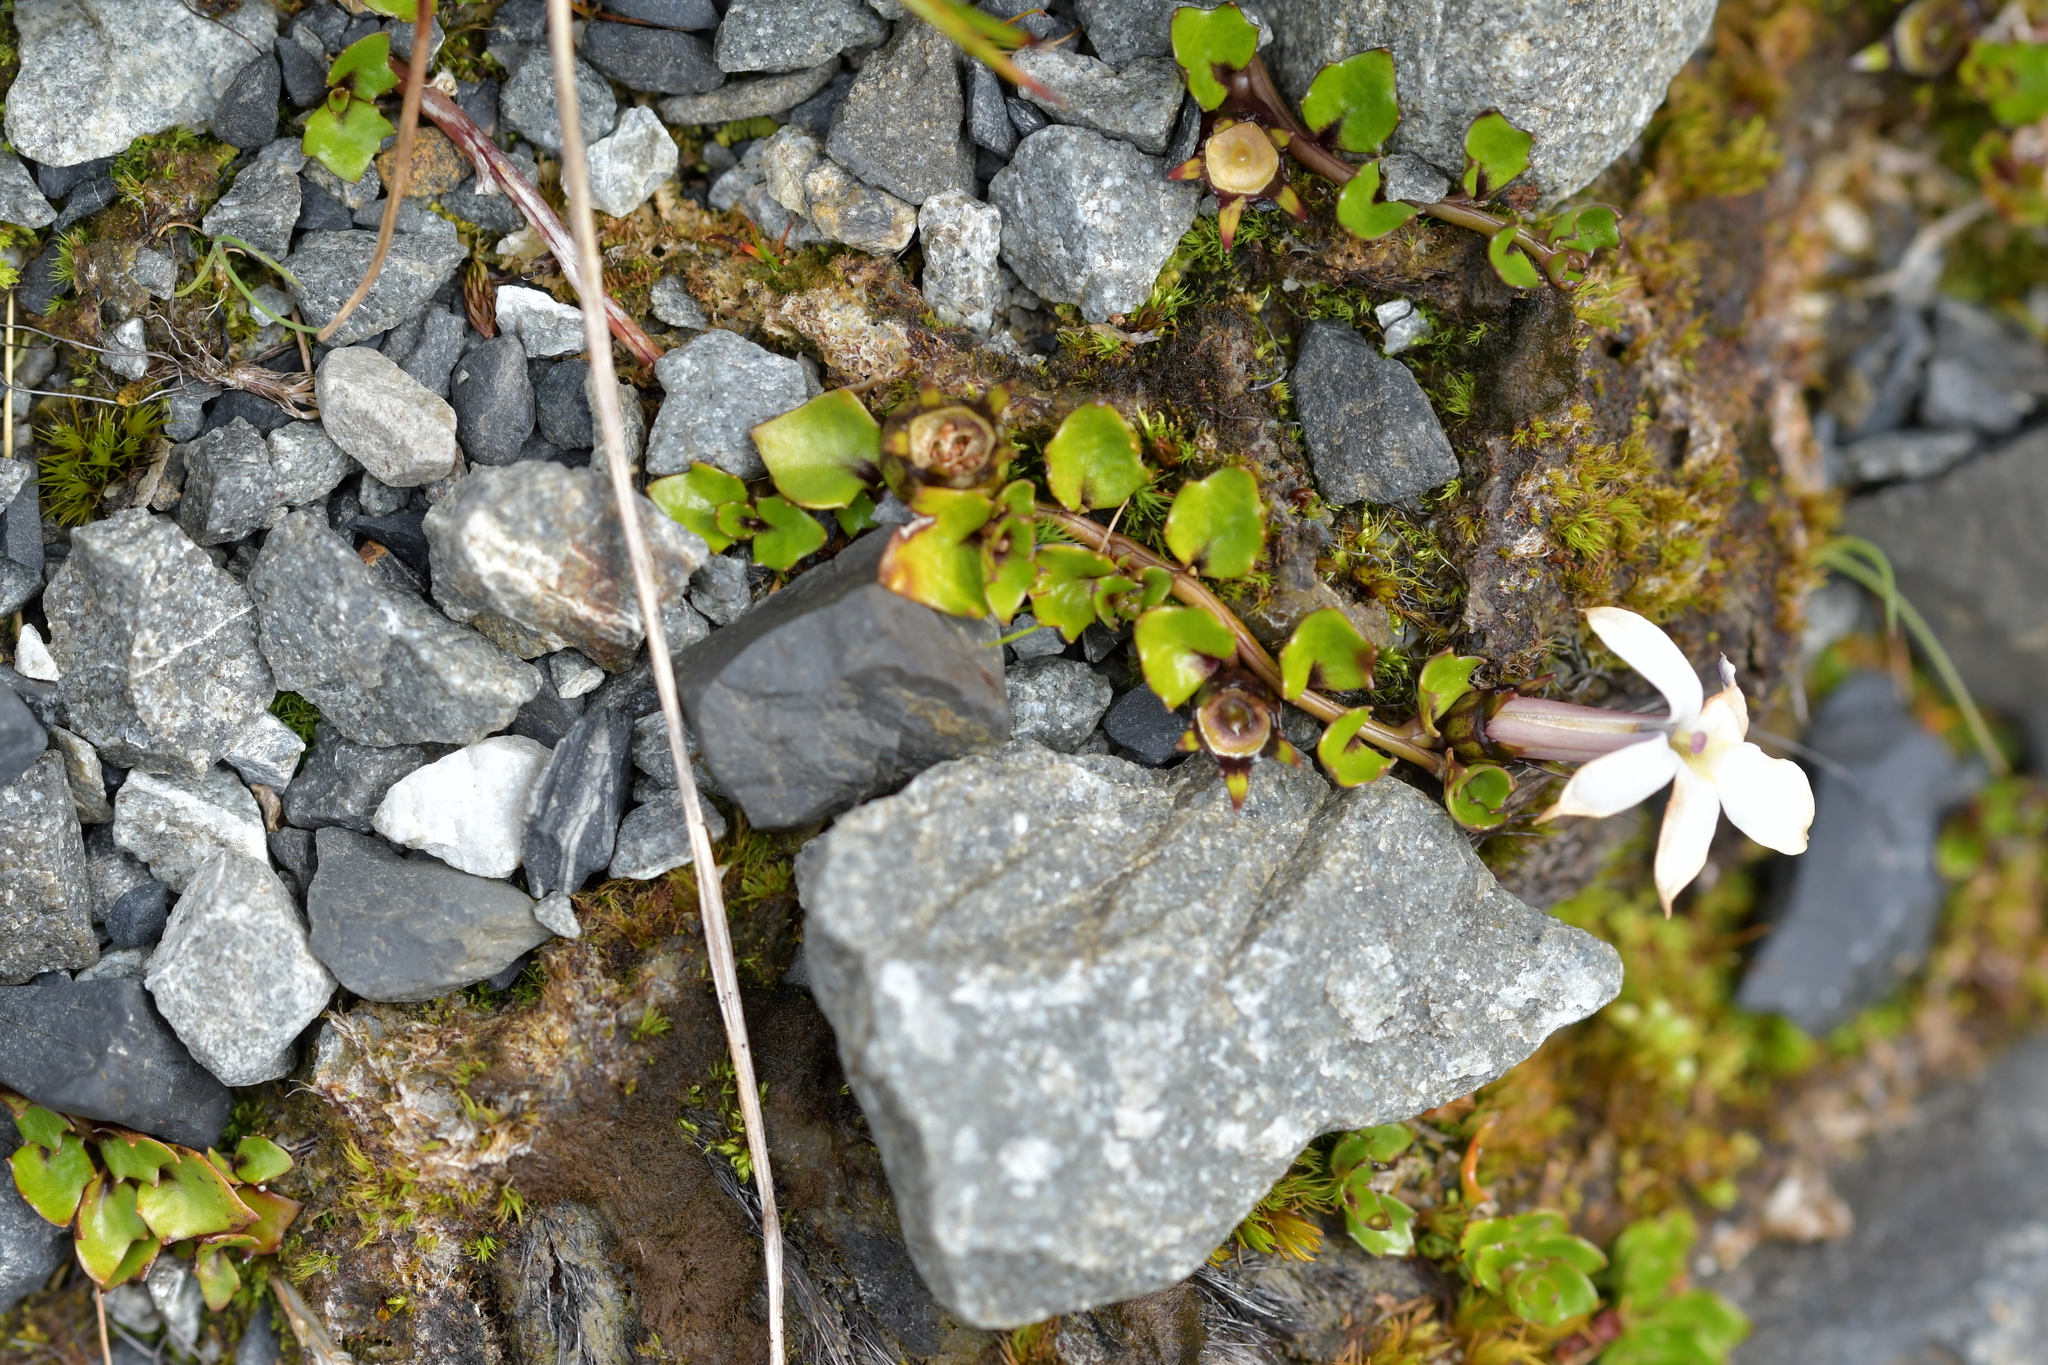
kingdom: Plantae
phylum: Tracheophyta
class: Magnoliopsida
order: Asterales
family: Campanulaceae
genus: Lobelia
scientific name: Lobelia macrodon
